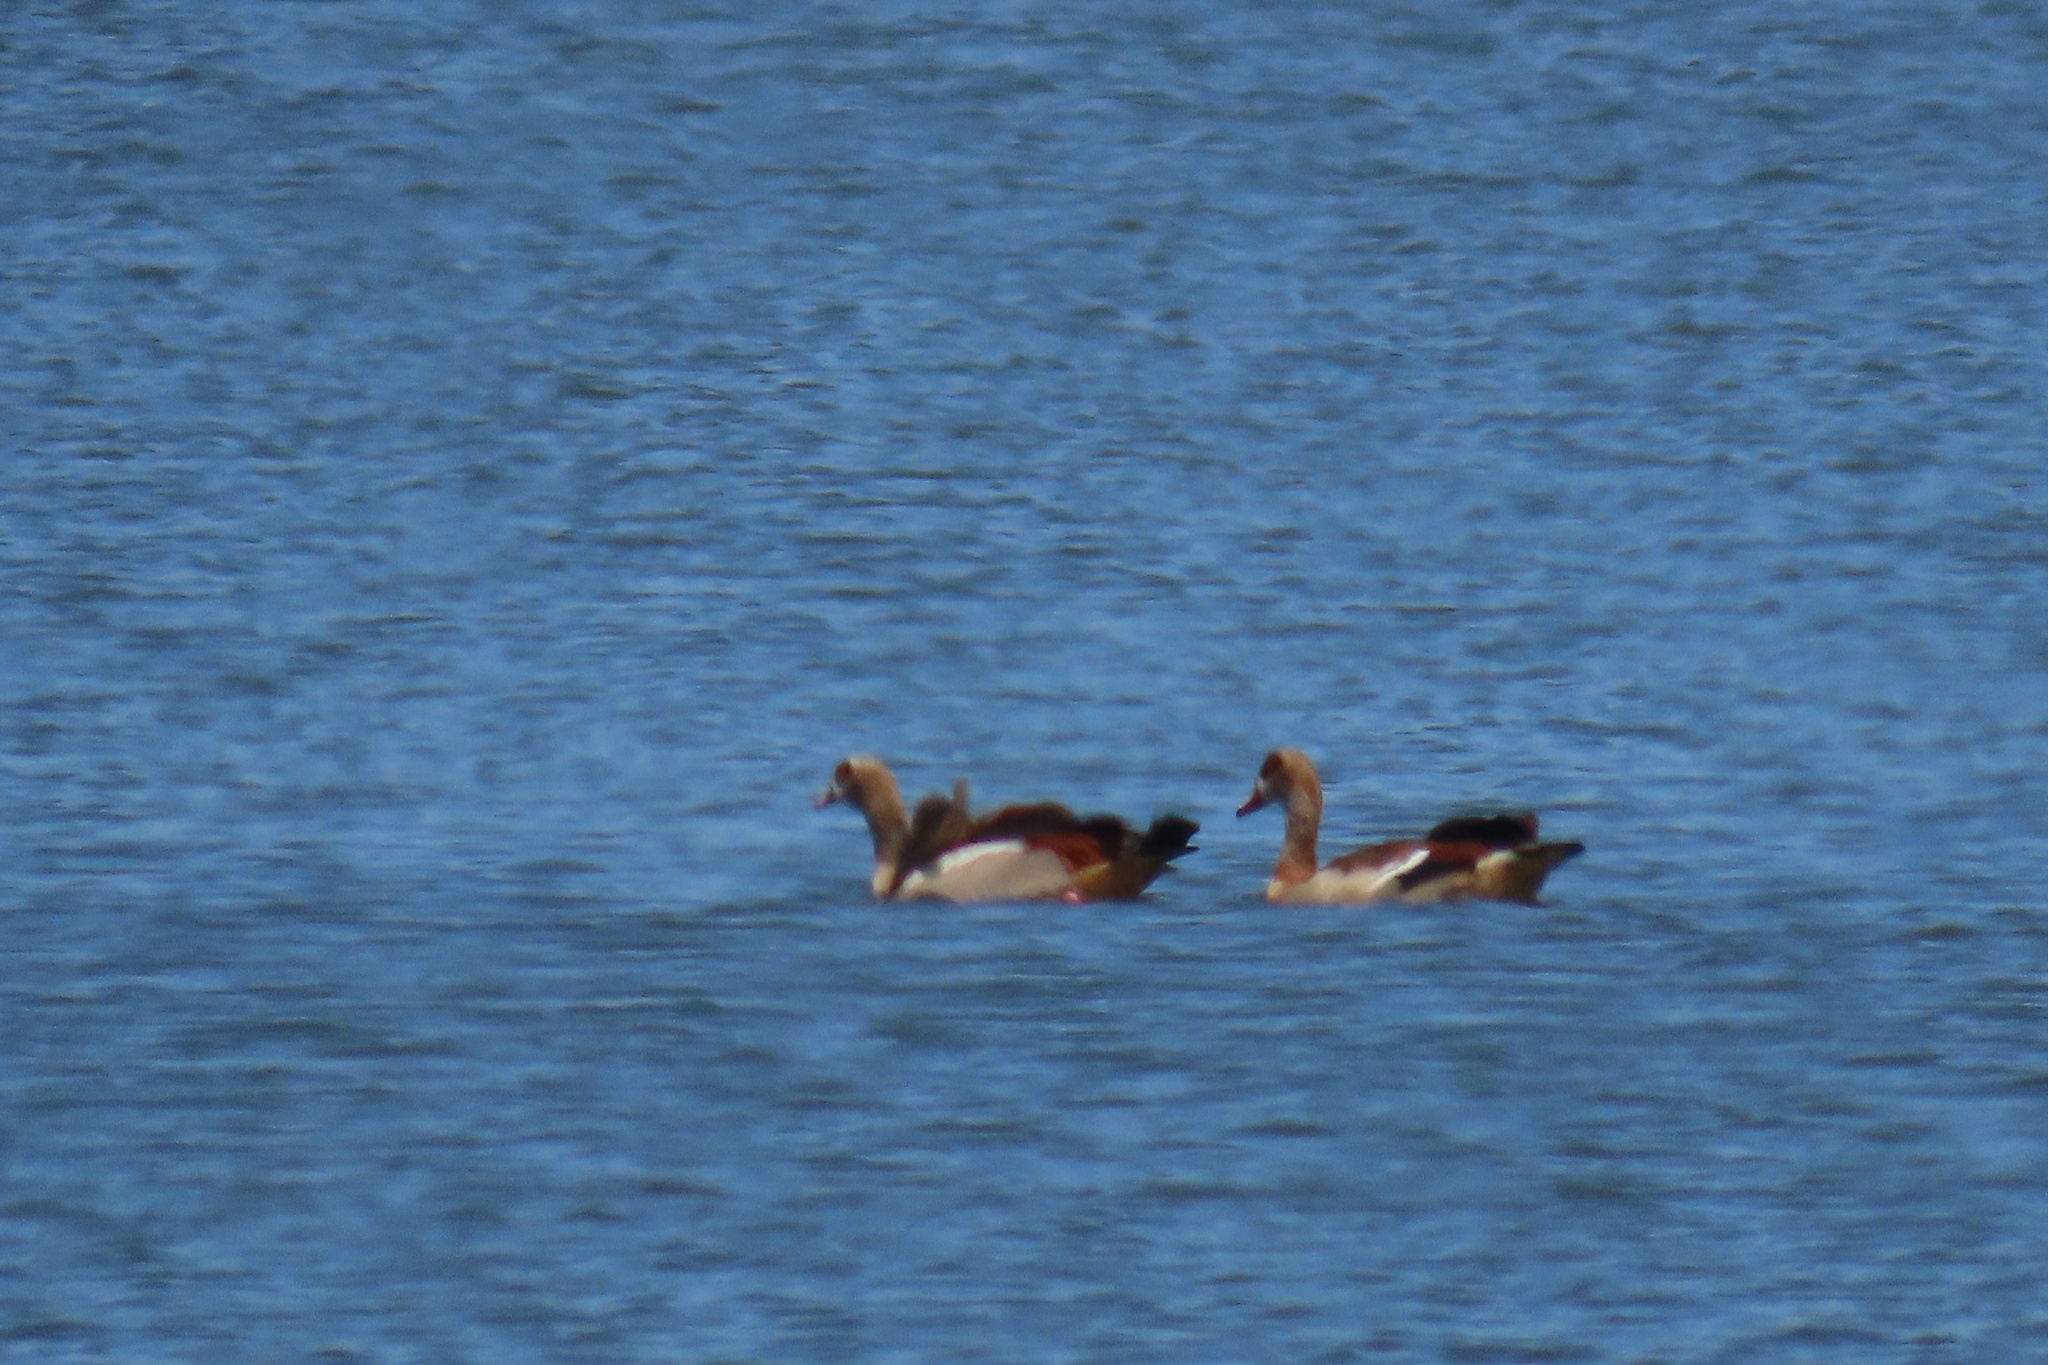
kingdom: Animalia
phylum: Chordata
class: Aves
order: Anseriformes
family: Anatidae
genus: Alopochen
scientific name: Alopochen aegyptiaca
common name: Egyptian goose
